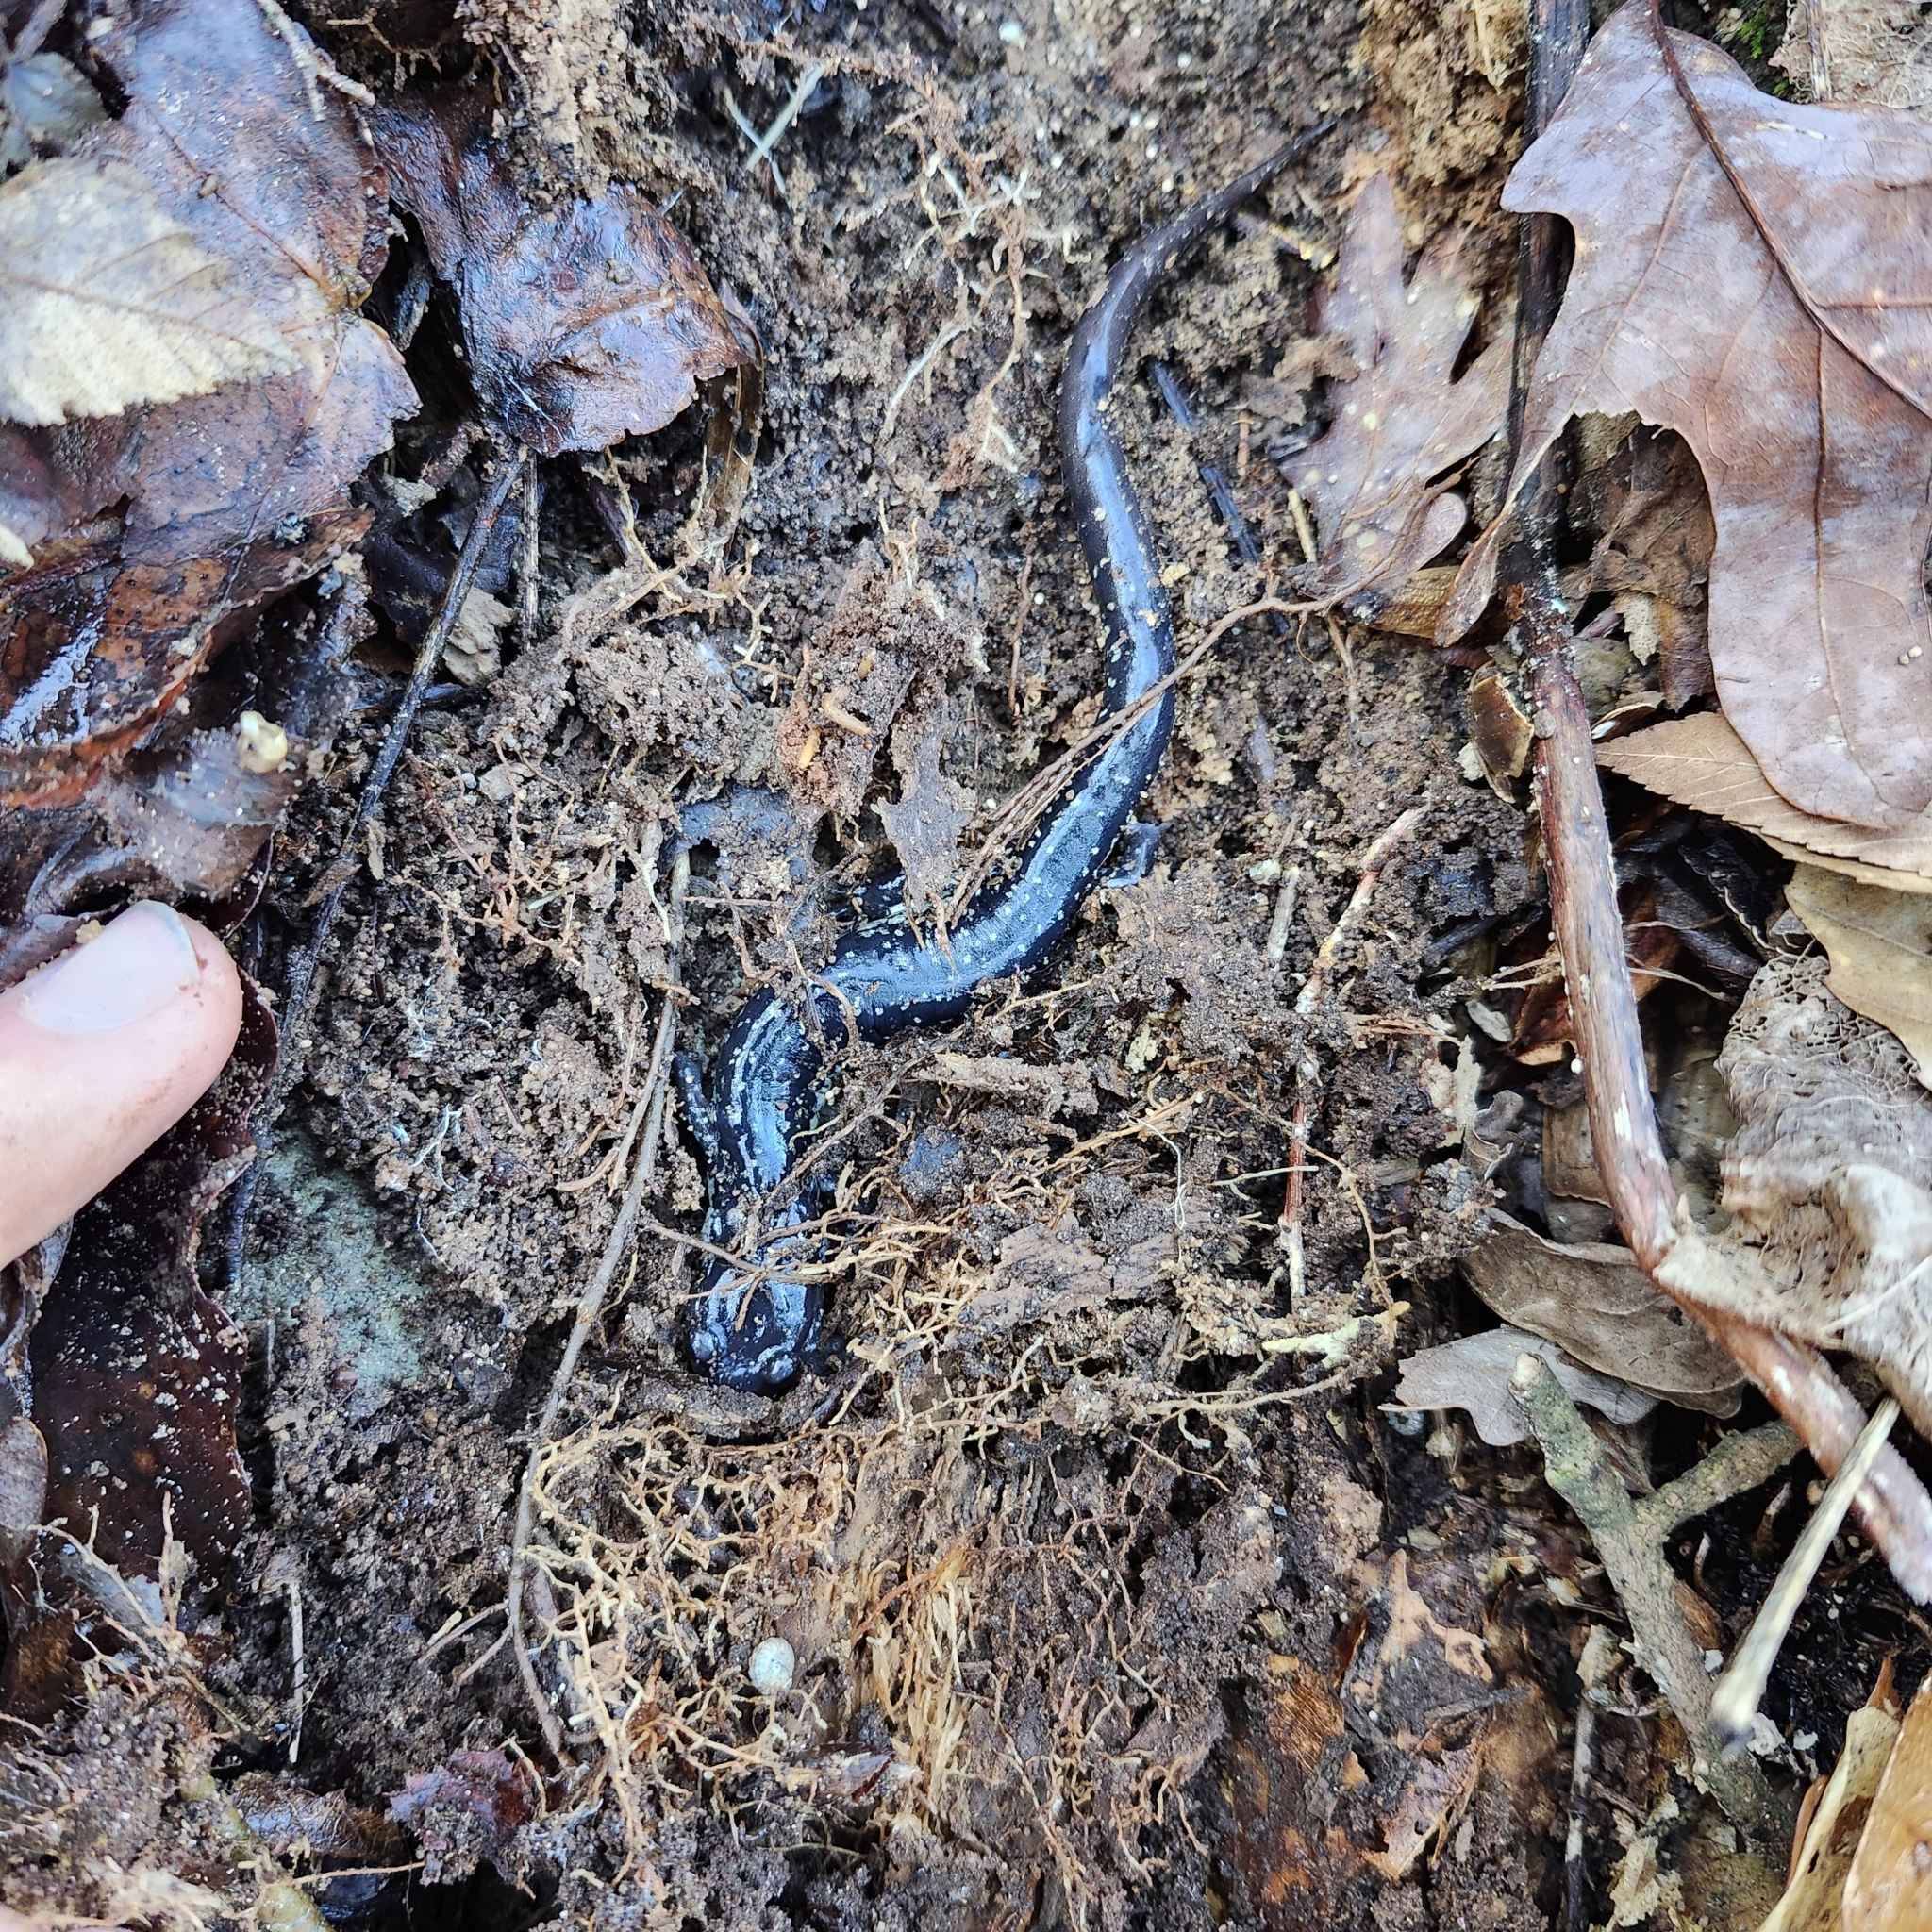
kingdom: Animalia
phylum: Chordata
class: Amphibia
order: Caudata
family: Plethodontidae
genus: Plethodon
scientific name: Plethodon glutinosus
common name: Northern slimy salamander
